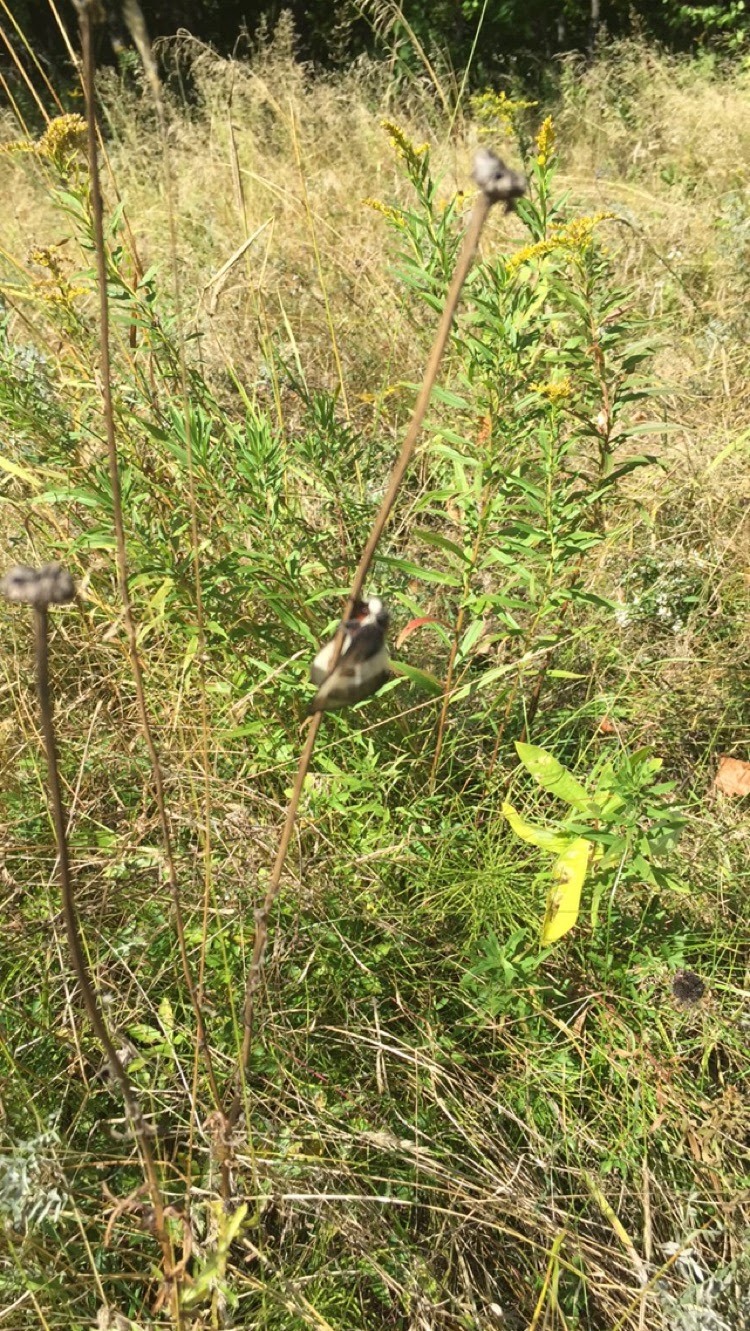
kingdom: Animalia
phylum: Arthropoda
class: Insecta
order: Lepidoptera
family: Saturniidae
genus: Hemileuca
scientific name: Hemileuca lucina
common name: New england buckmoth
